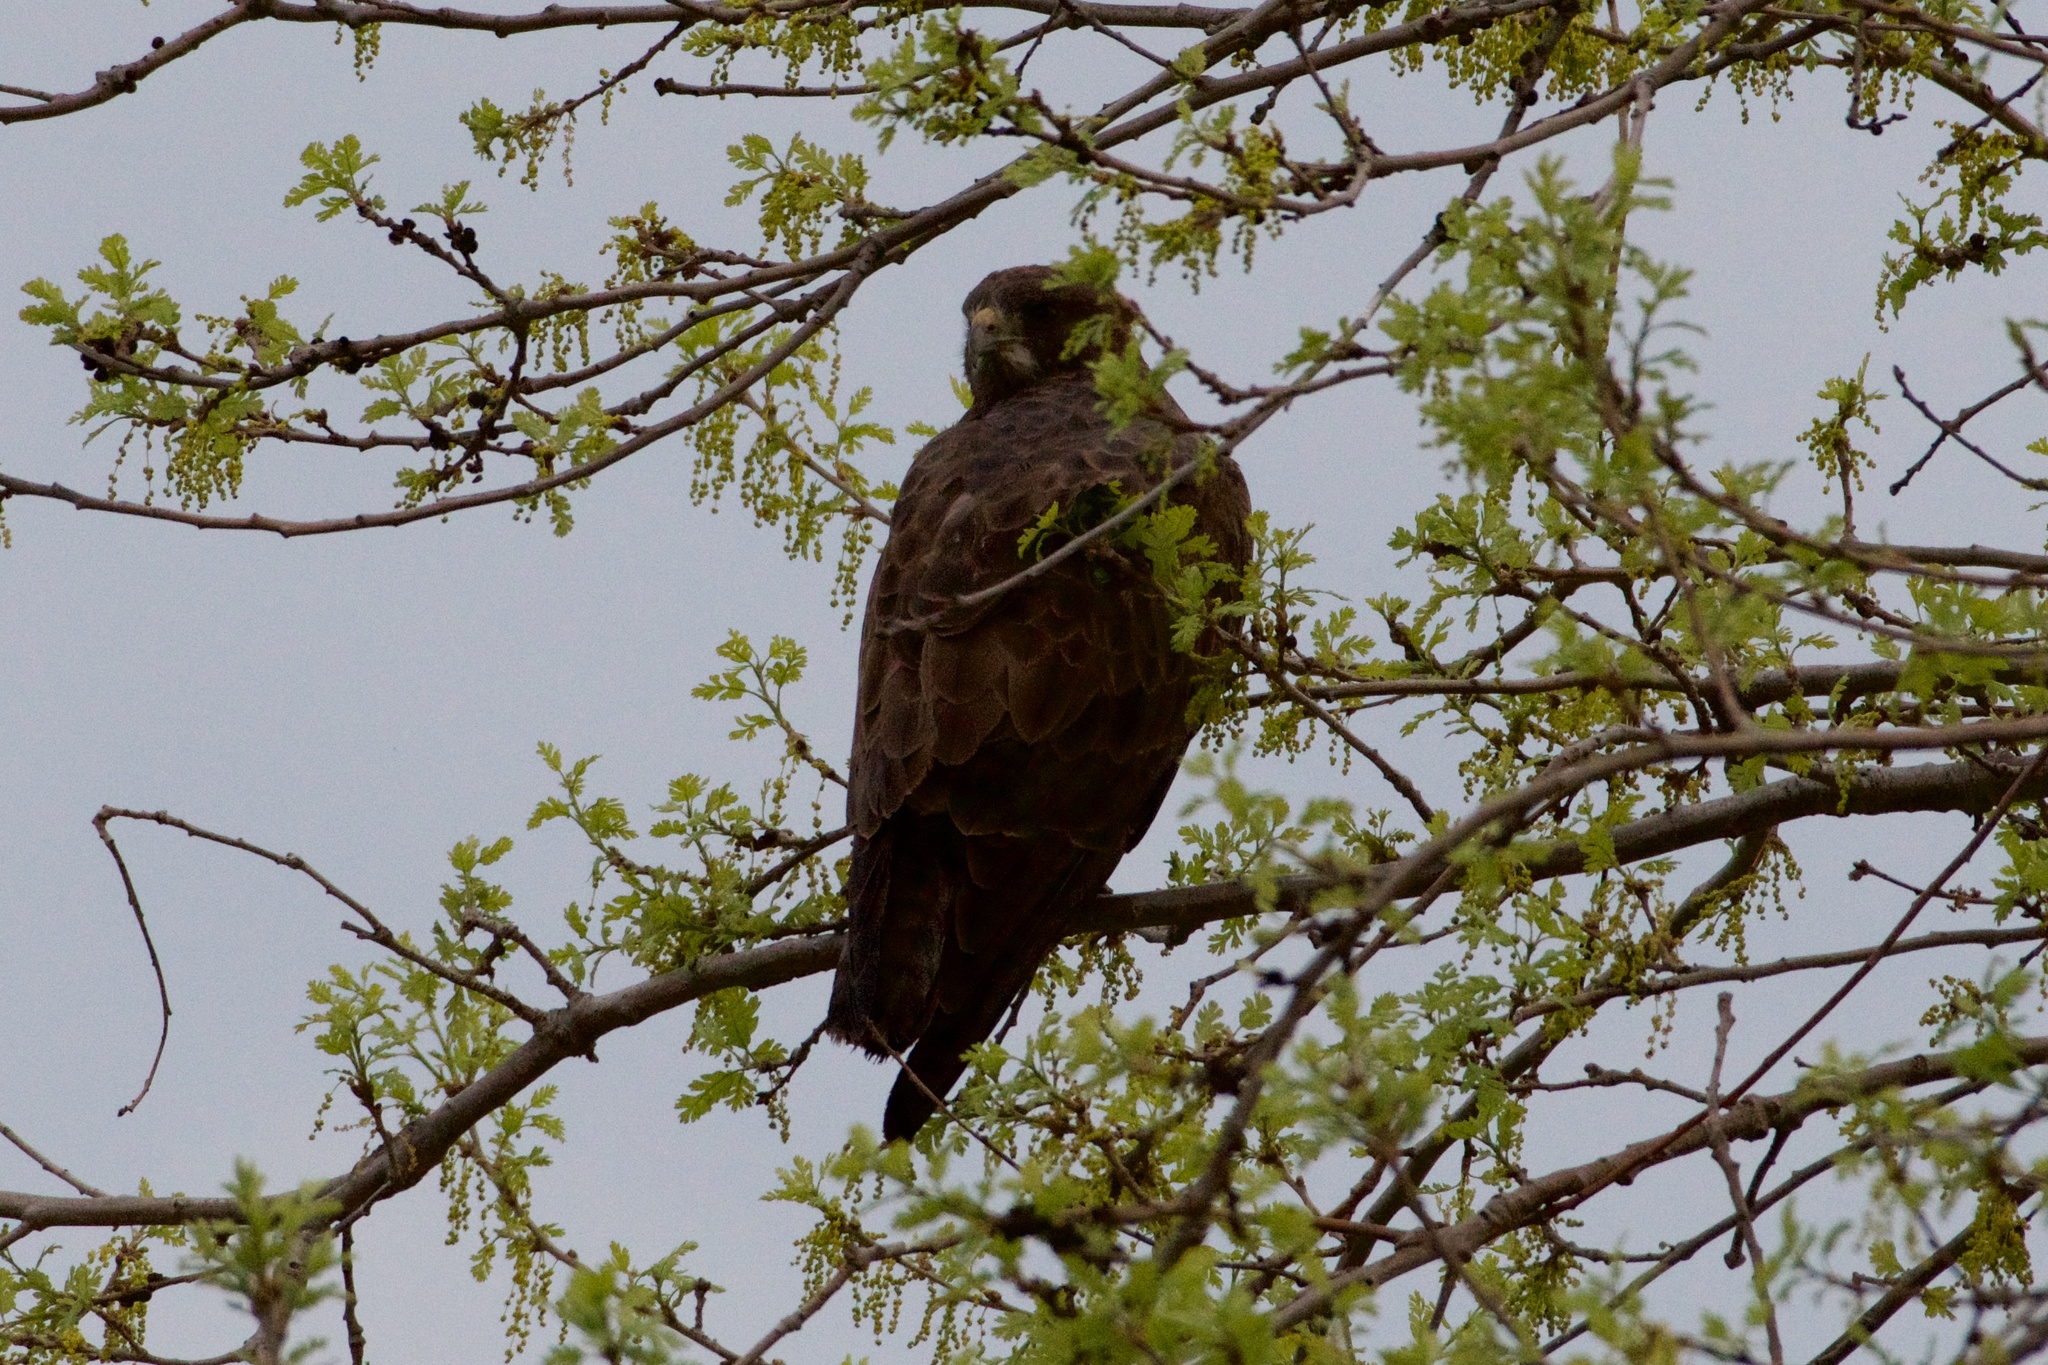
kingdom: Animalia
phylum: Chordata
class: Aves
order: Accipitriformes
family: Accipitridae
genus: Buteo
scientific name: Buteo swainsoni
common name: Swainson's hawk
